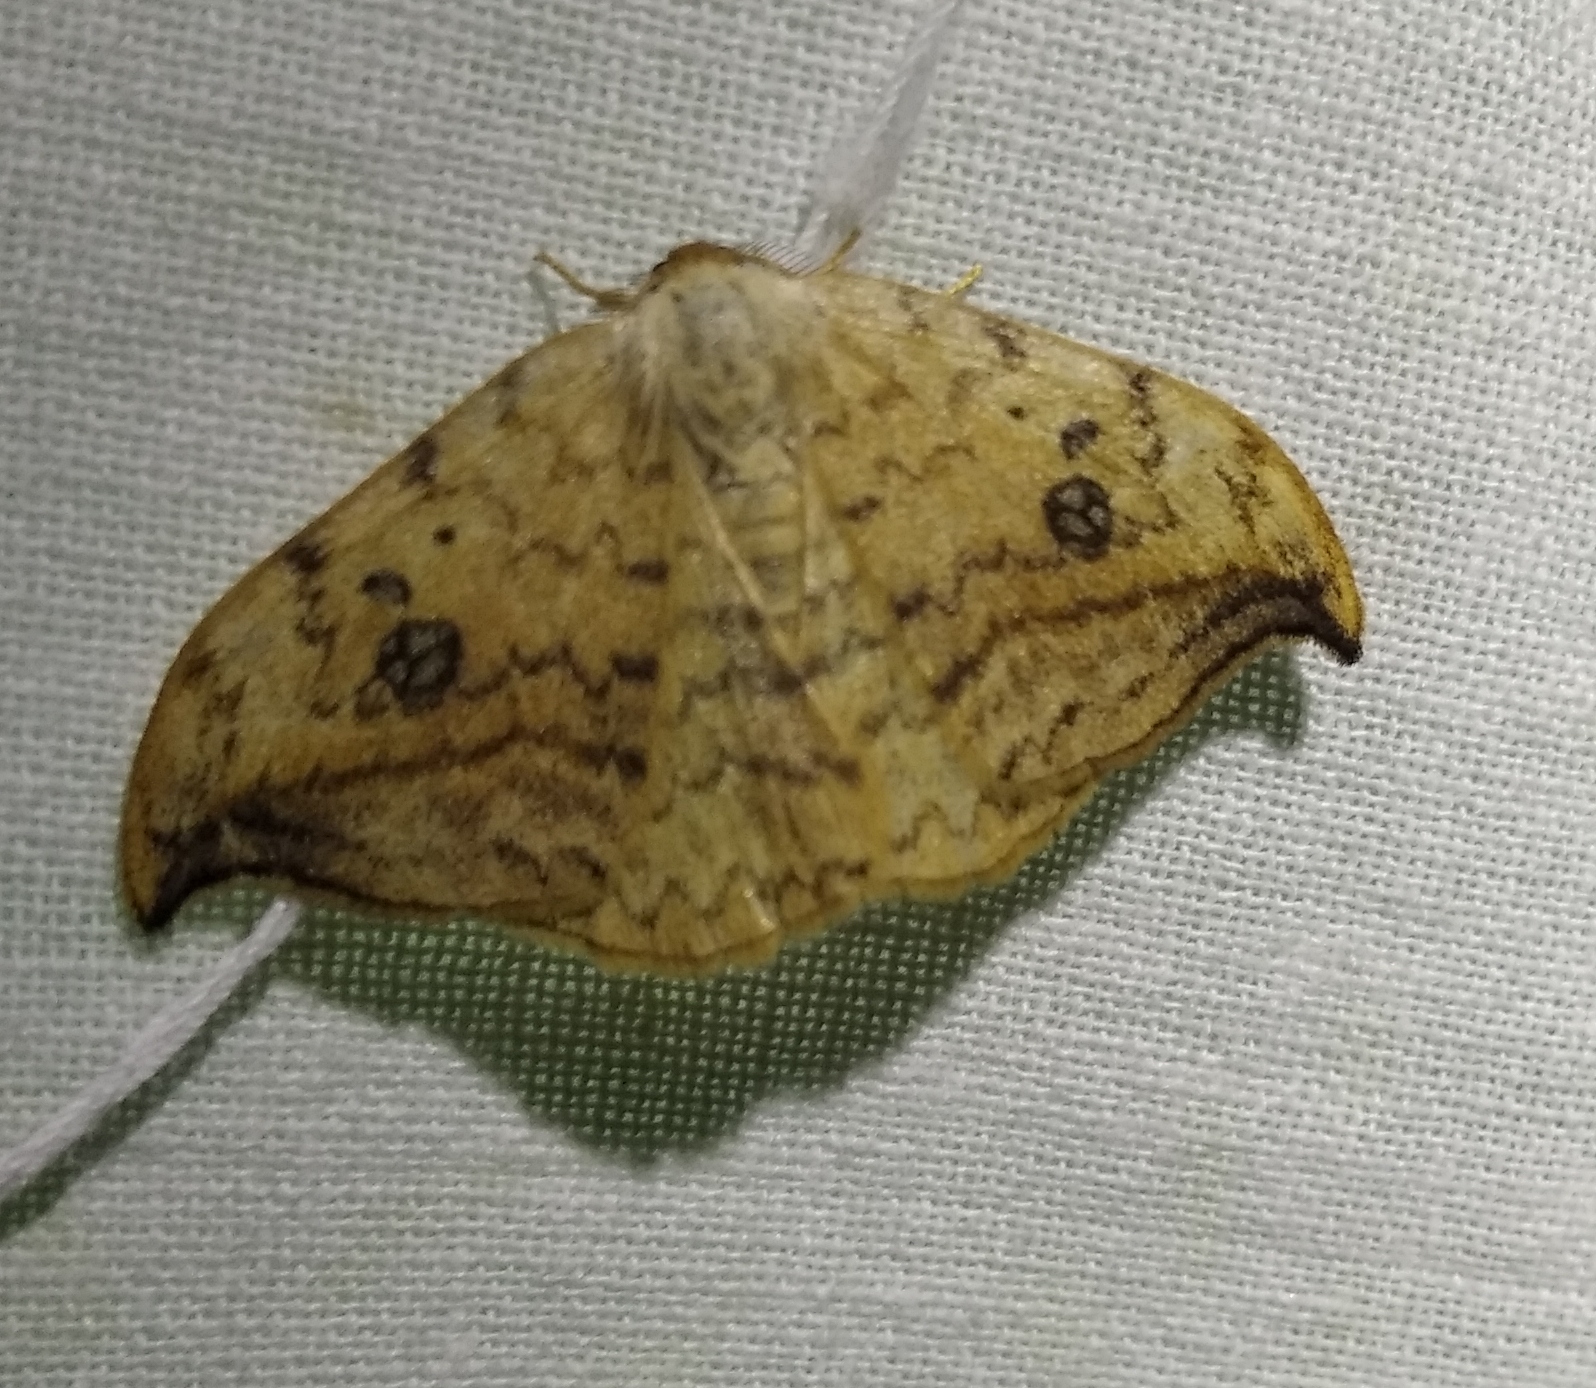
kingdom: Animalia
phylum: Arthropoda
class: Insecta
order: Lepidoptera
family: Drepanidae
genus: Drepana
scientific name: Drepana falcataria
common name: Pebble hook-tip
